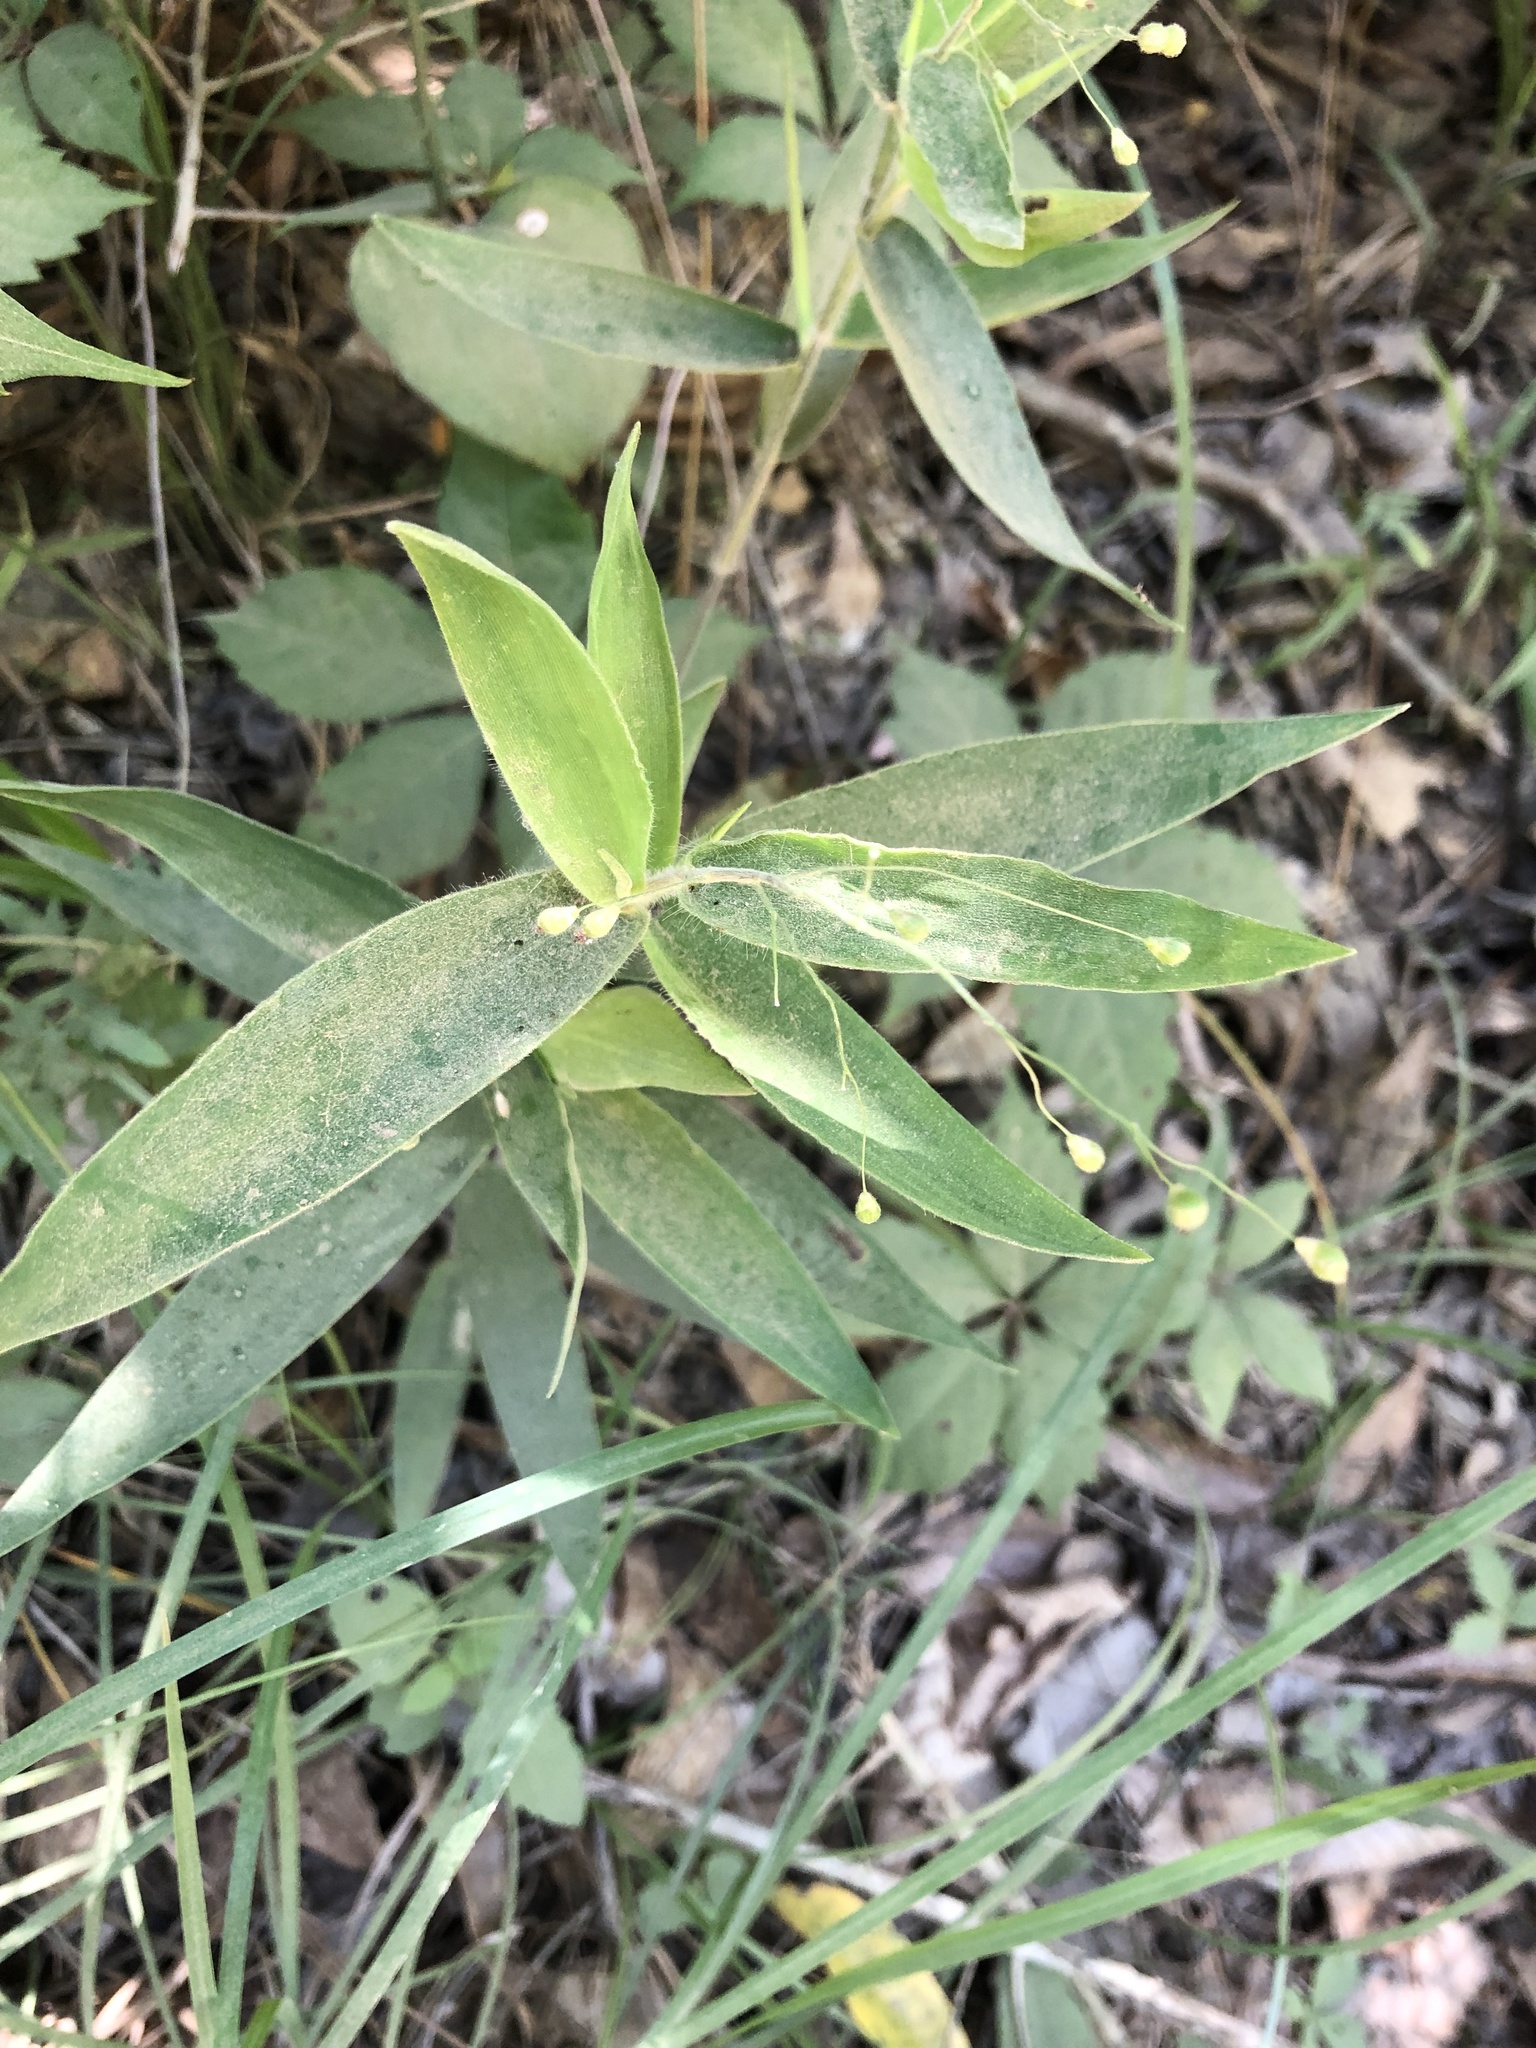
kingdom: Plantae
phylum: Tracheophyta
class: Liliopsida
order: Poales
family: Poaceae
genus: Dichanthelium
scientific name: Dichanthelium ravenelii
